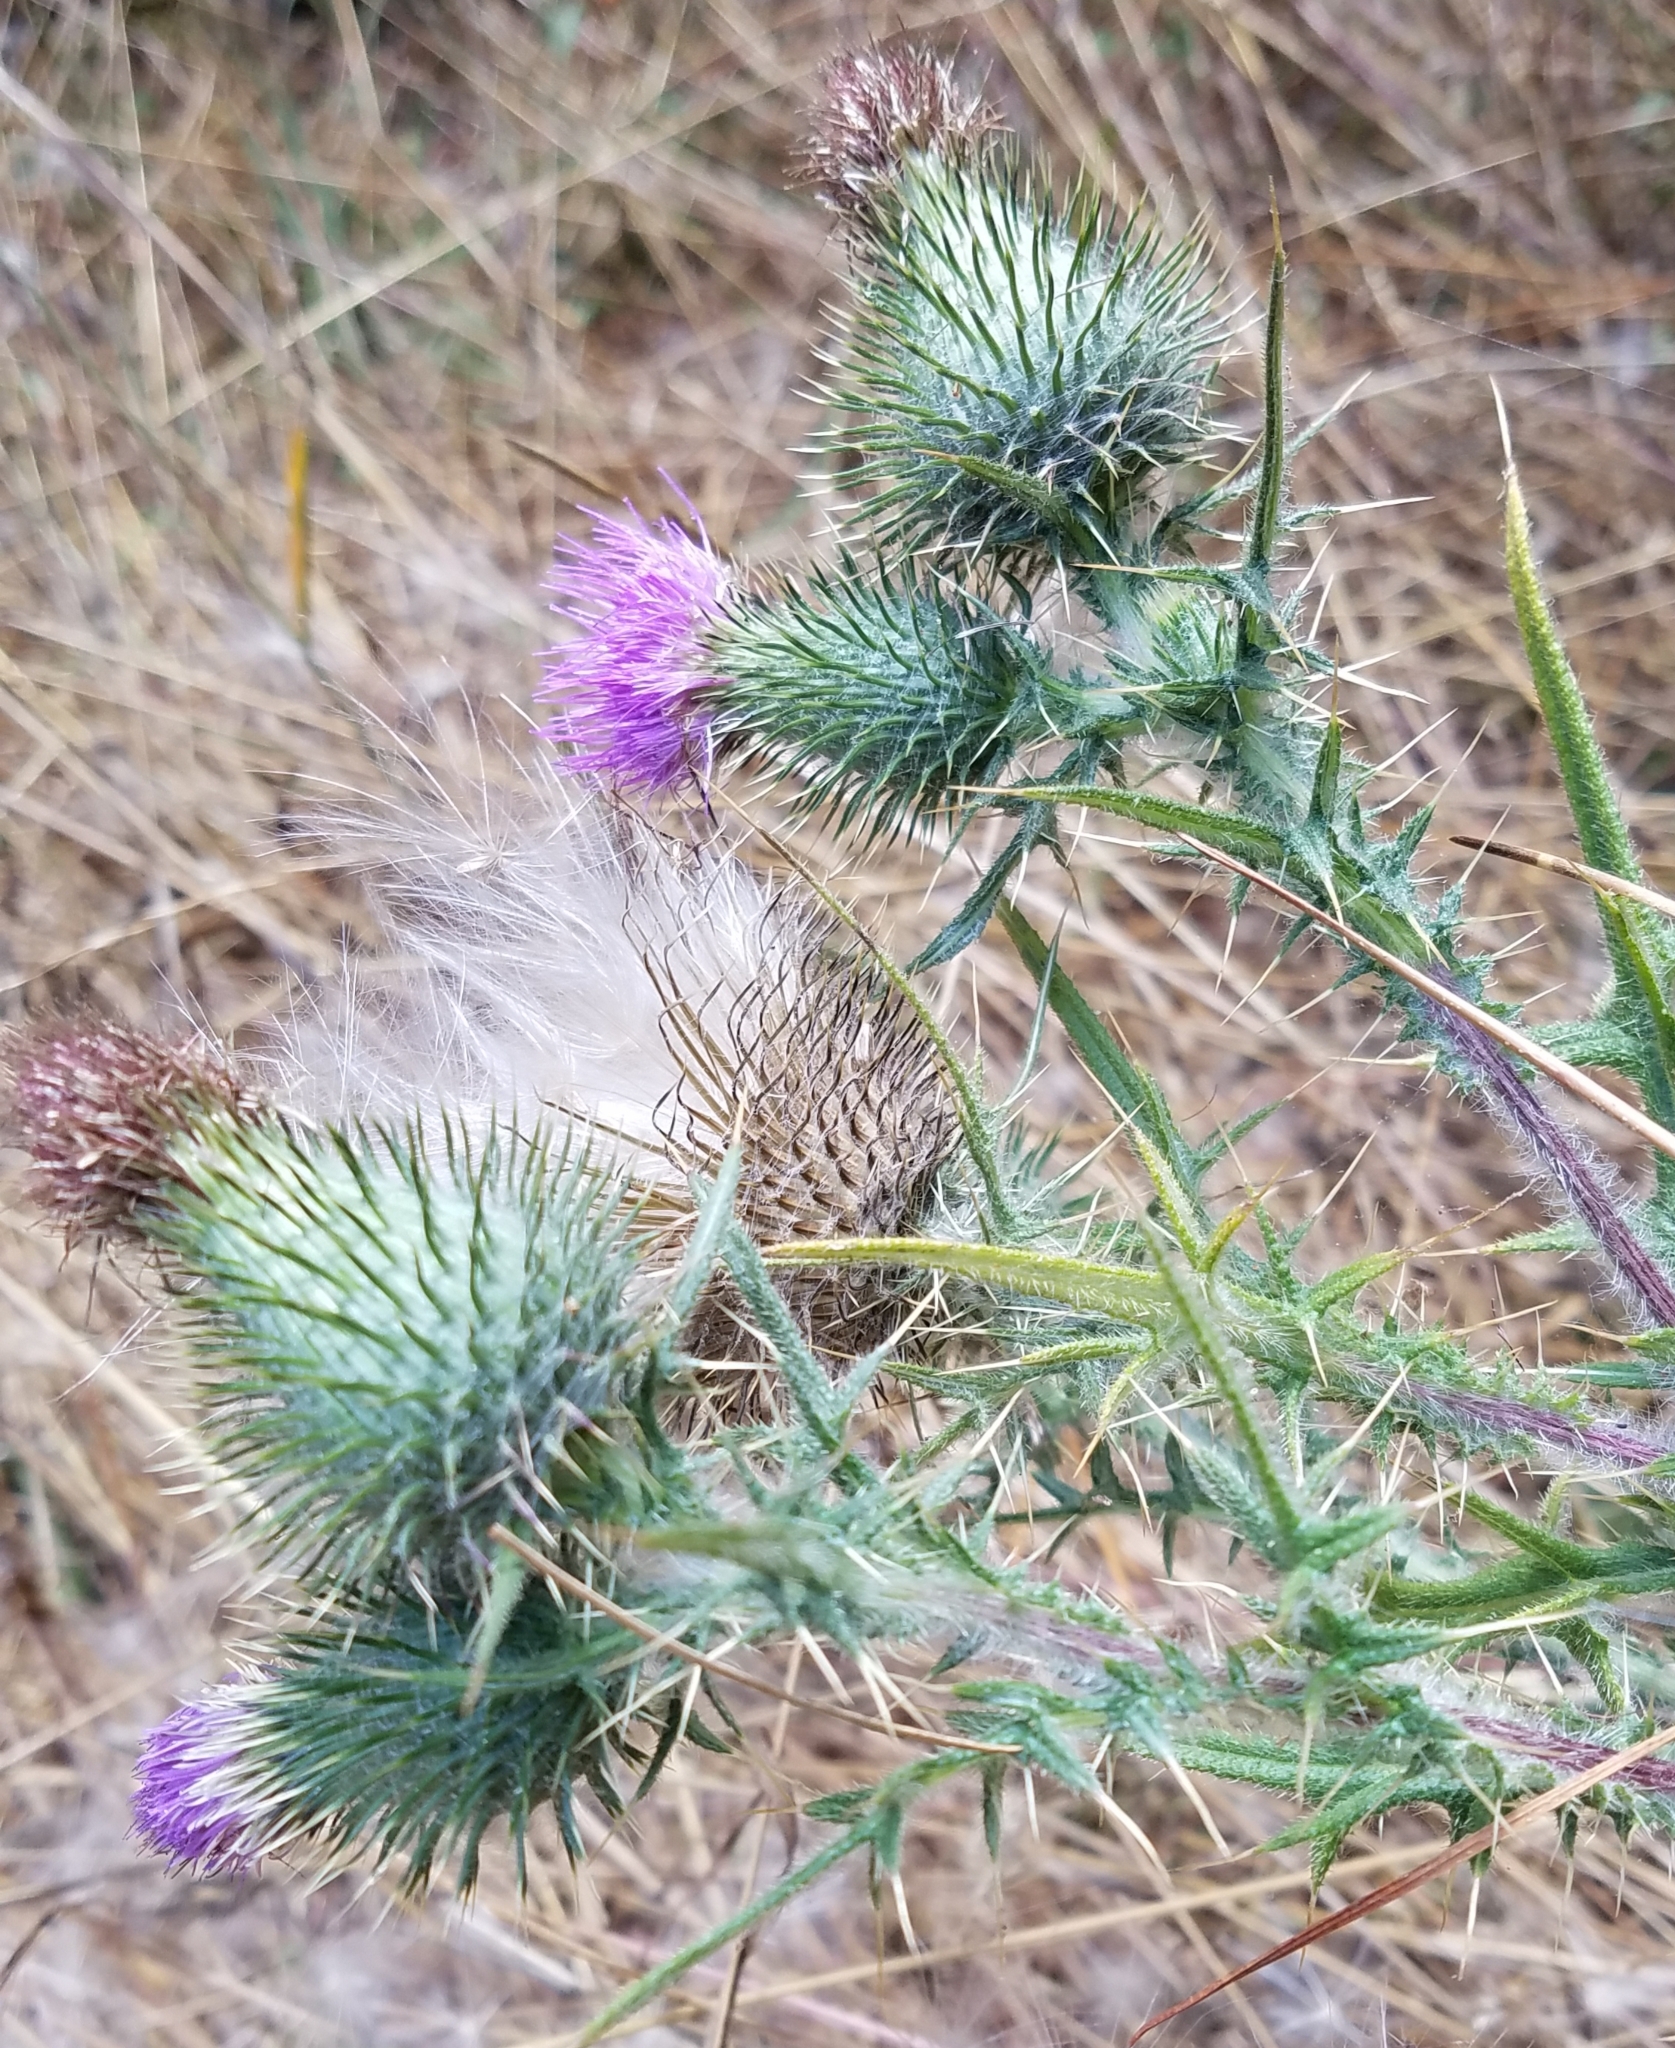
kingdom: Plantae
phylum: Tracheophyta
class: Magnoliopsida
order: Asterales
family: Asteraceae
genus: Cirsium
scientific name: Cirsium vulgare
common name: Bull thistle
